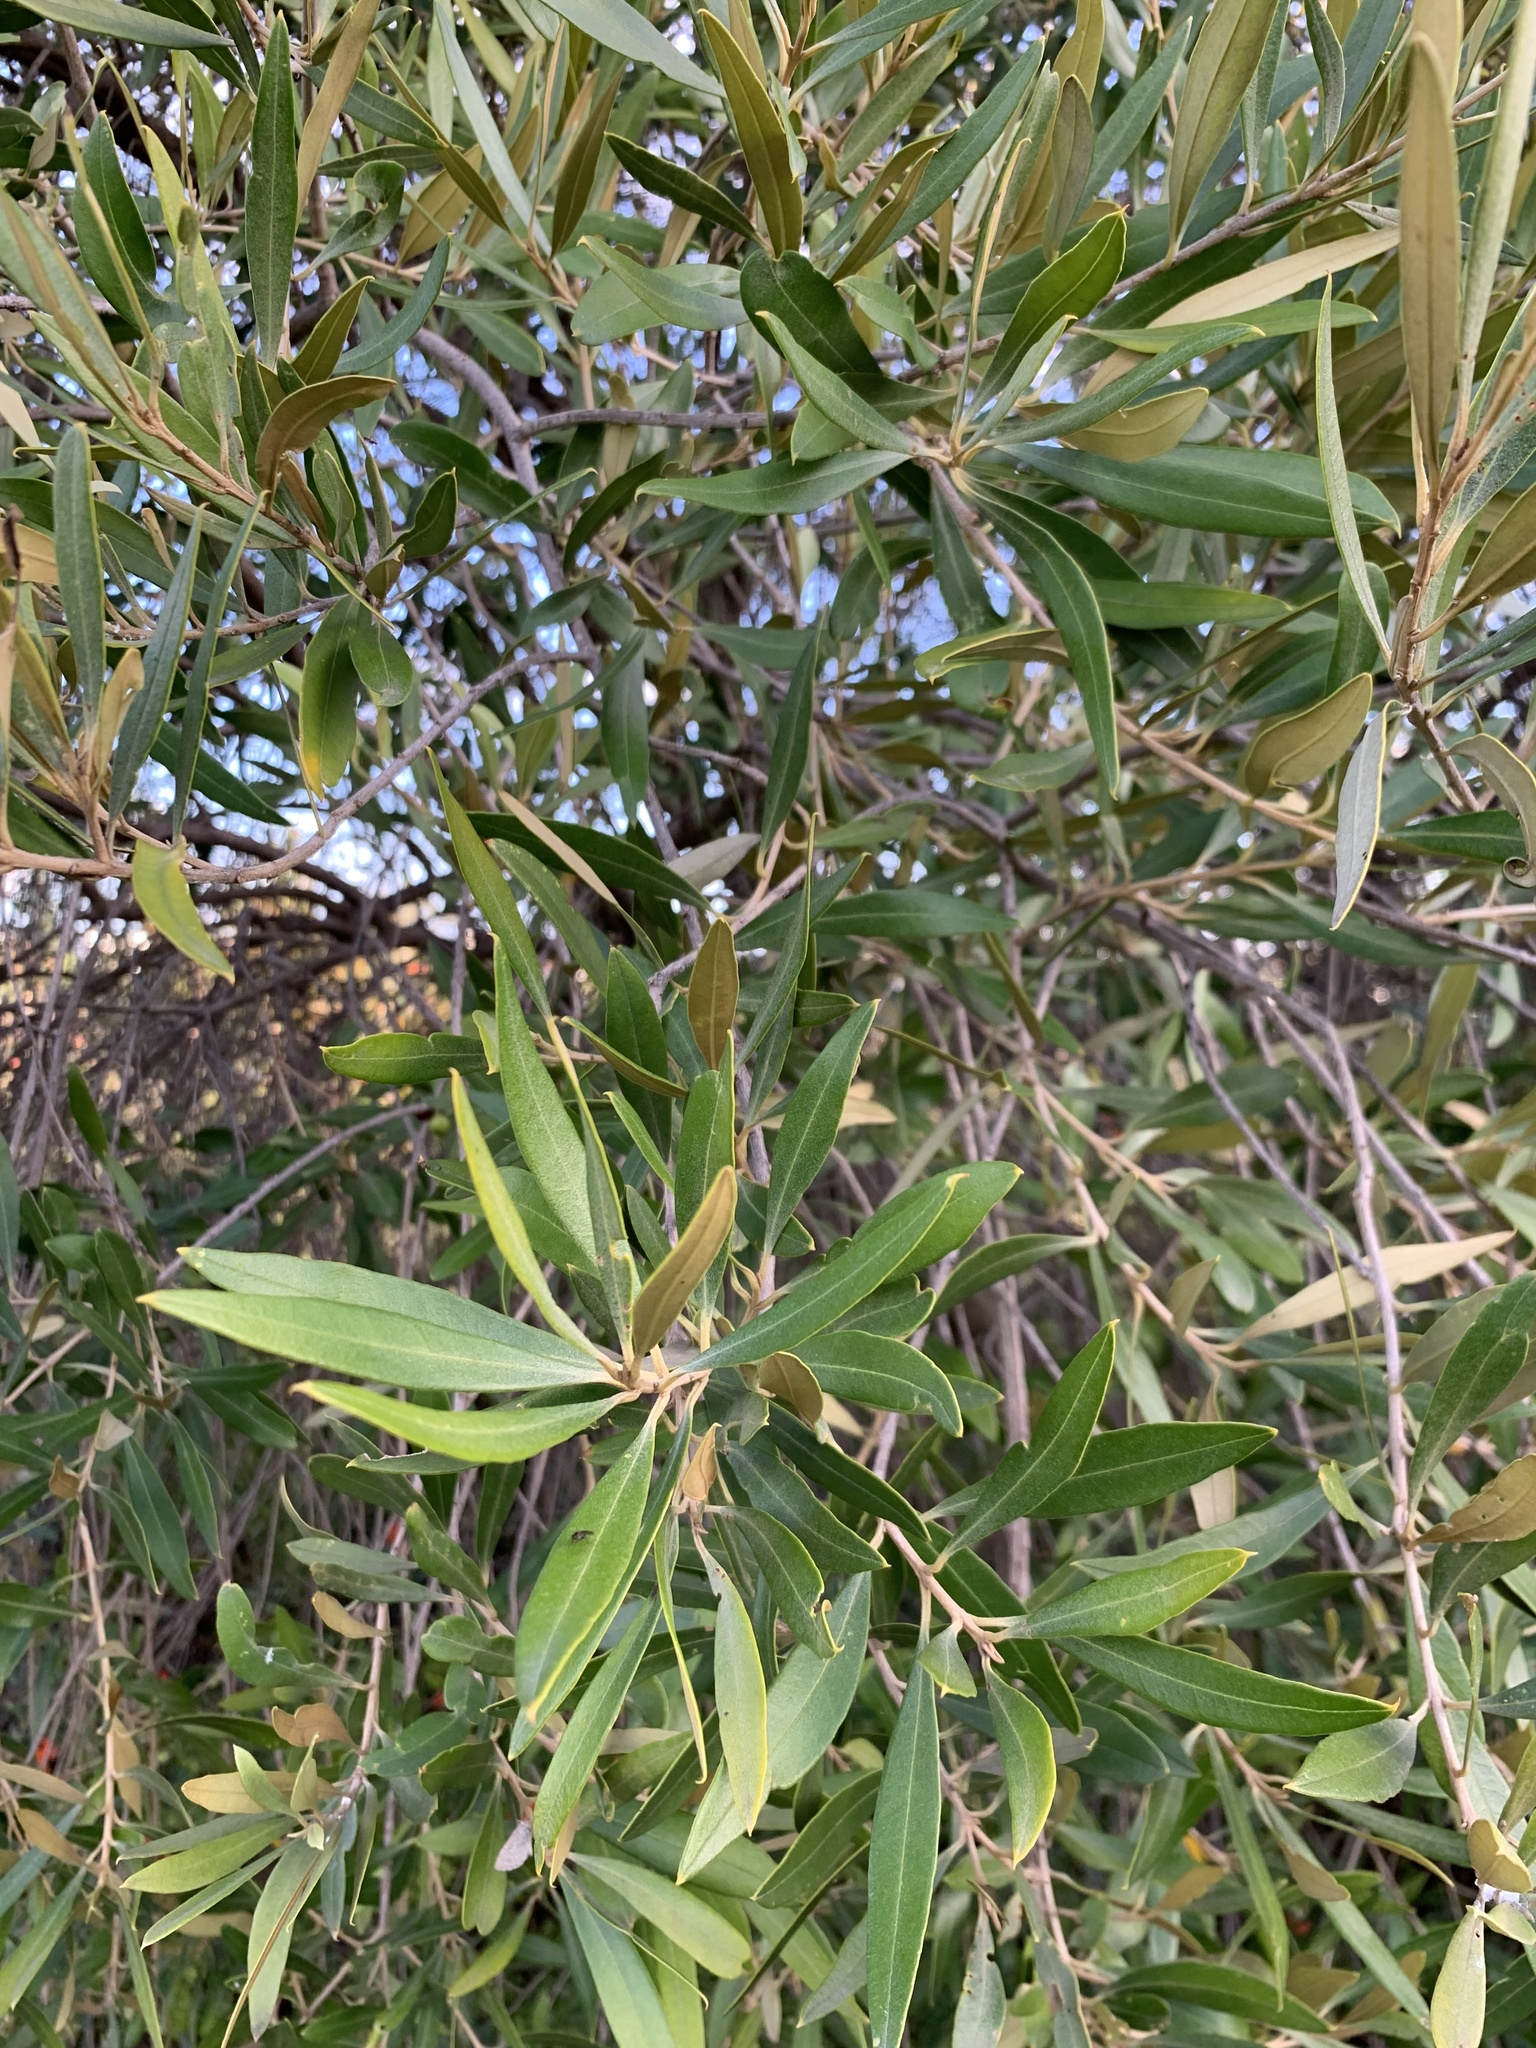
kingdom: Plantae
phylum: Tracheophyta
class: Magnoliopsida
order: Lamiales
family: Oleaceae
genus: Olea
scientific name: Olea europaea
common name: Olive
